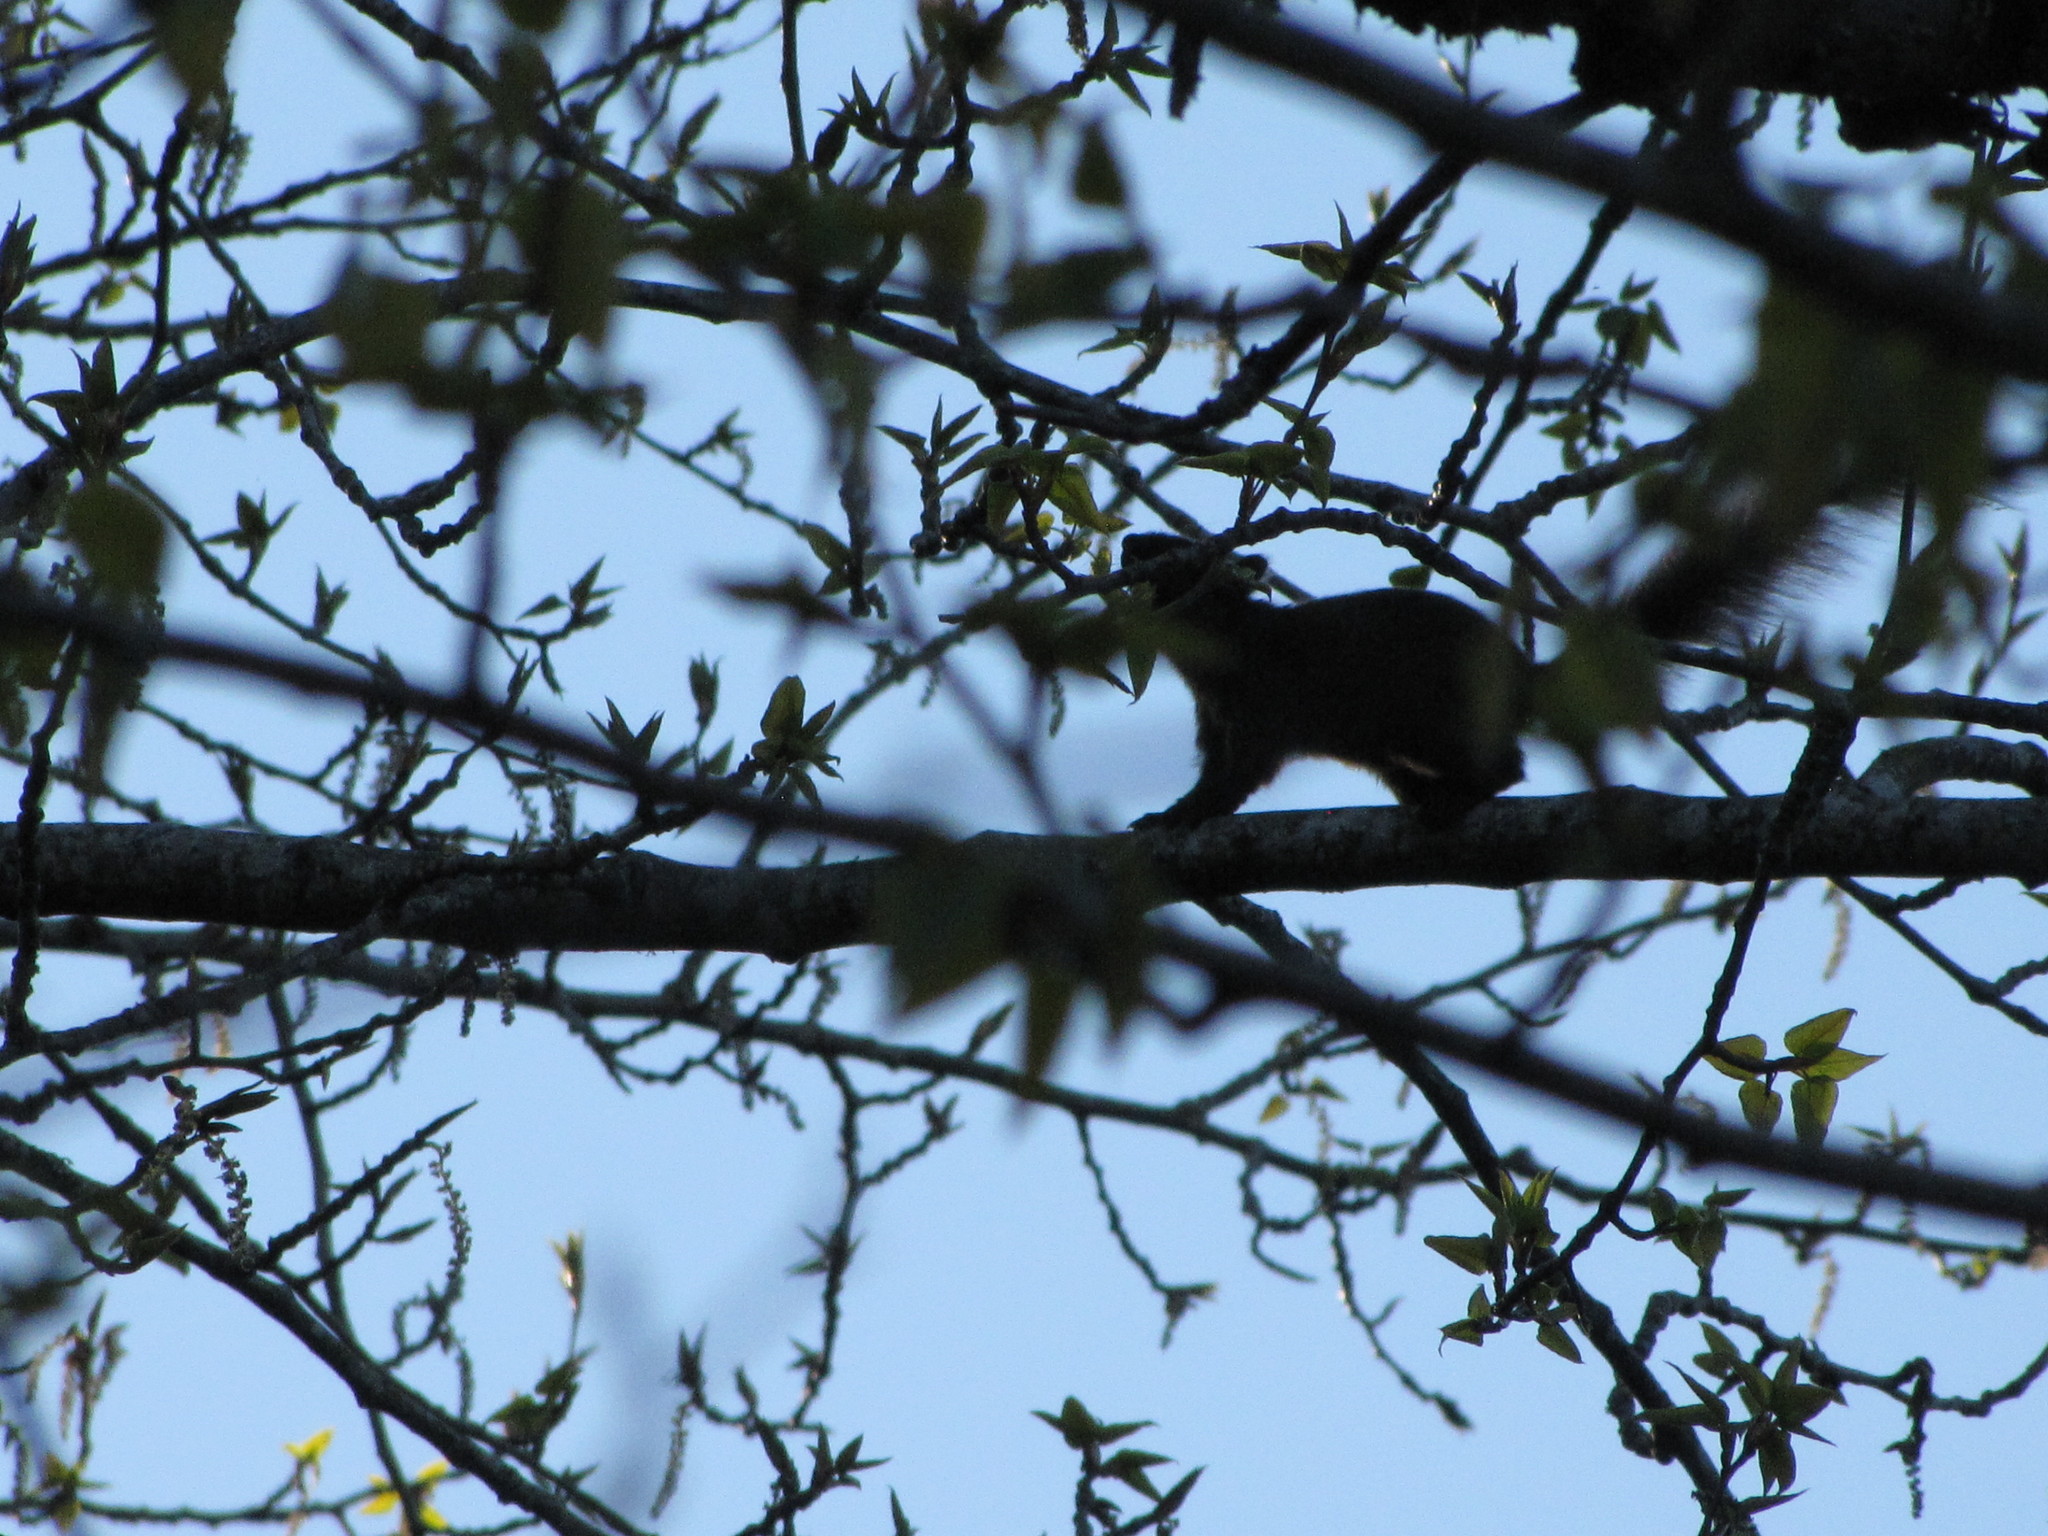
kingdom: Animalia
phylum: Chordata
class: Mammalia
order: Rodentia
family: Sciuridae
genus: Sciurus
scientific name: Sciurus carolinensis
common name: Eastern gray squirrel
